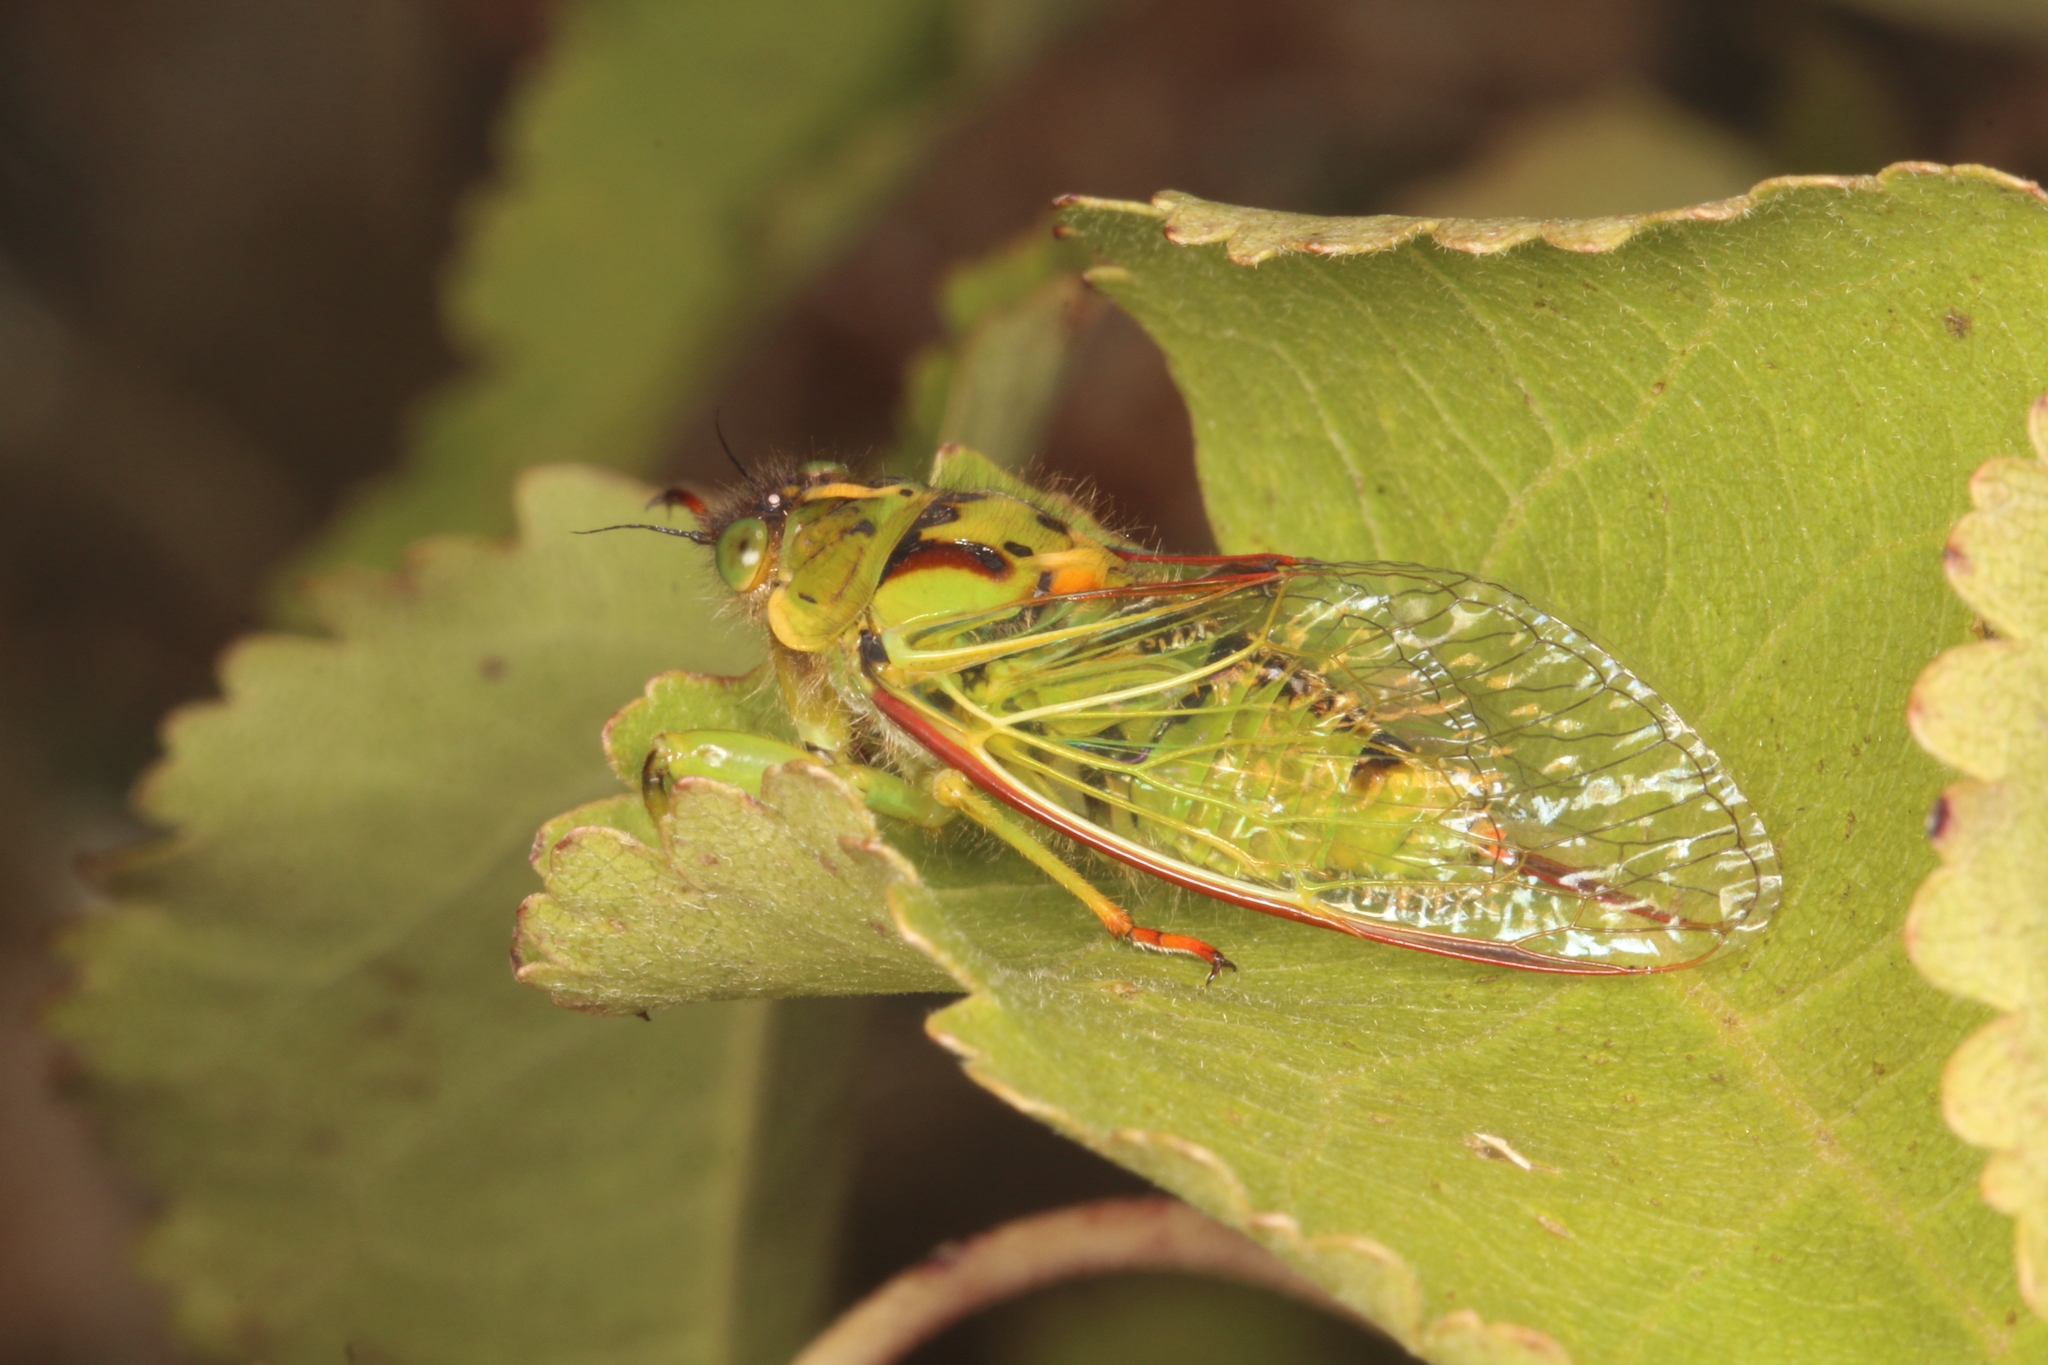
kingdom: Animalia
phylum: Arthropoda
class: Insecta
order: Hemiptera
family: Cicadidae
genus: Kikihia
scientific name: Kikihia horologium
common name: Clock cicada
